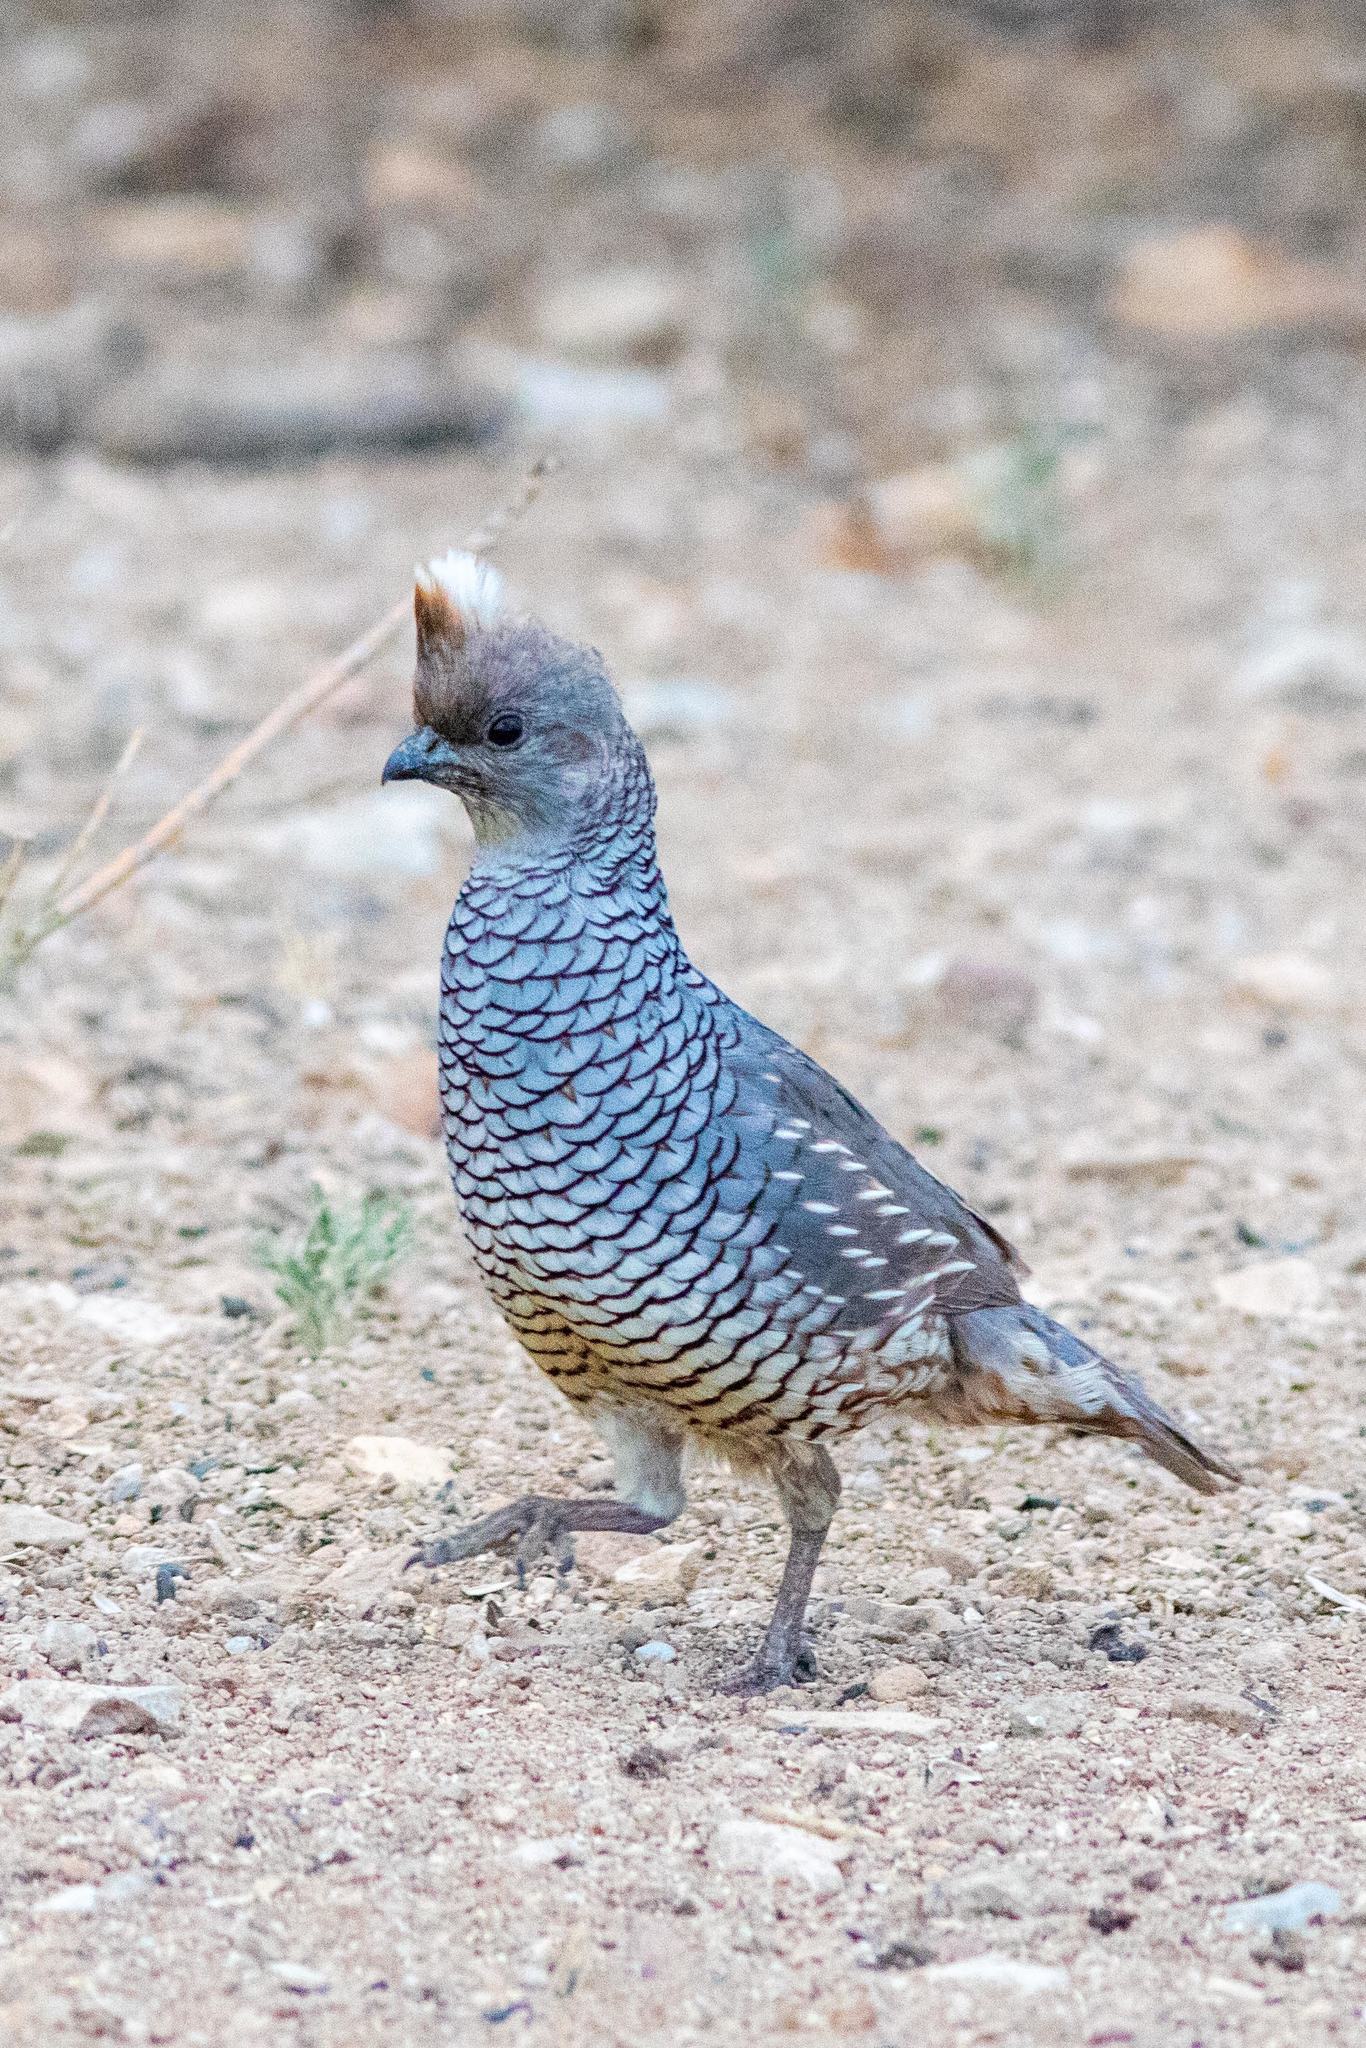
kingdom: Animalia
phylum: Chordata
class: Aves
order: Galliformes
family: Odontophoridae
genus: Callipepla
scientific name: Callipepla squamata
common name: Scaled quail
